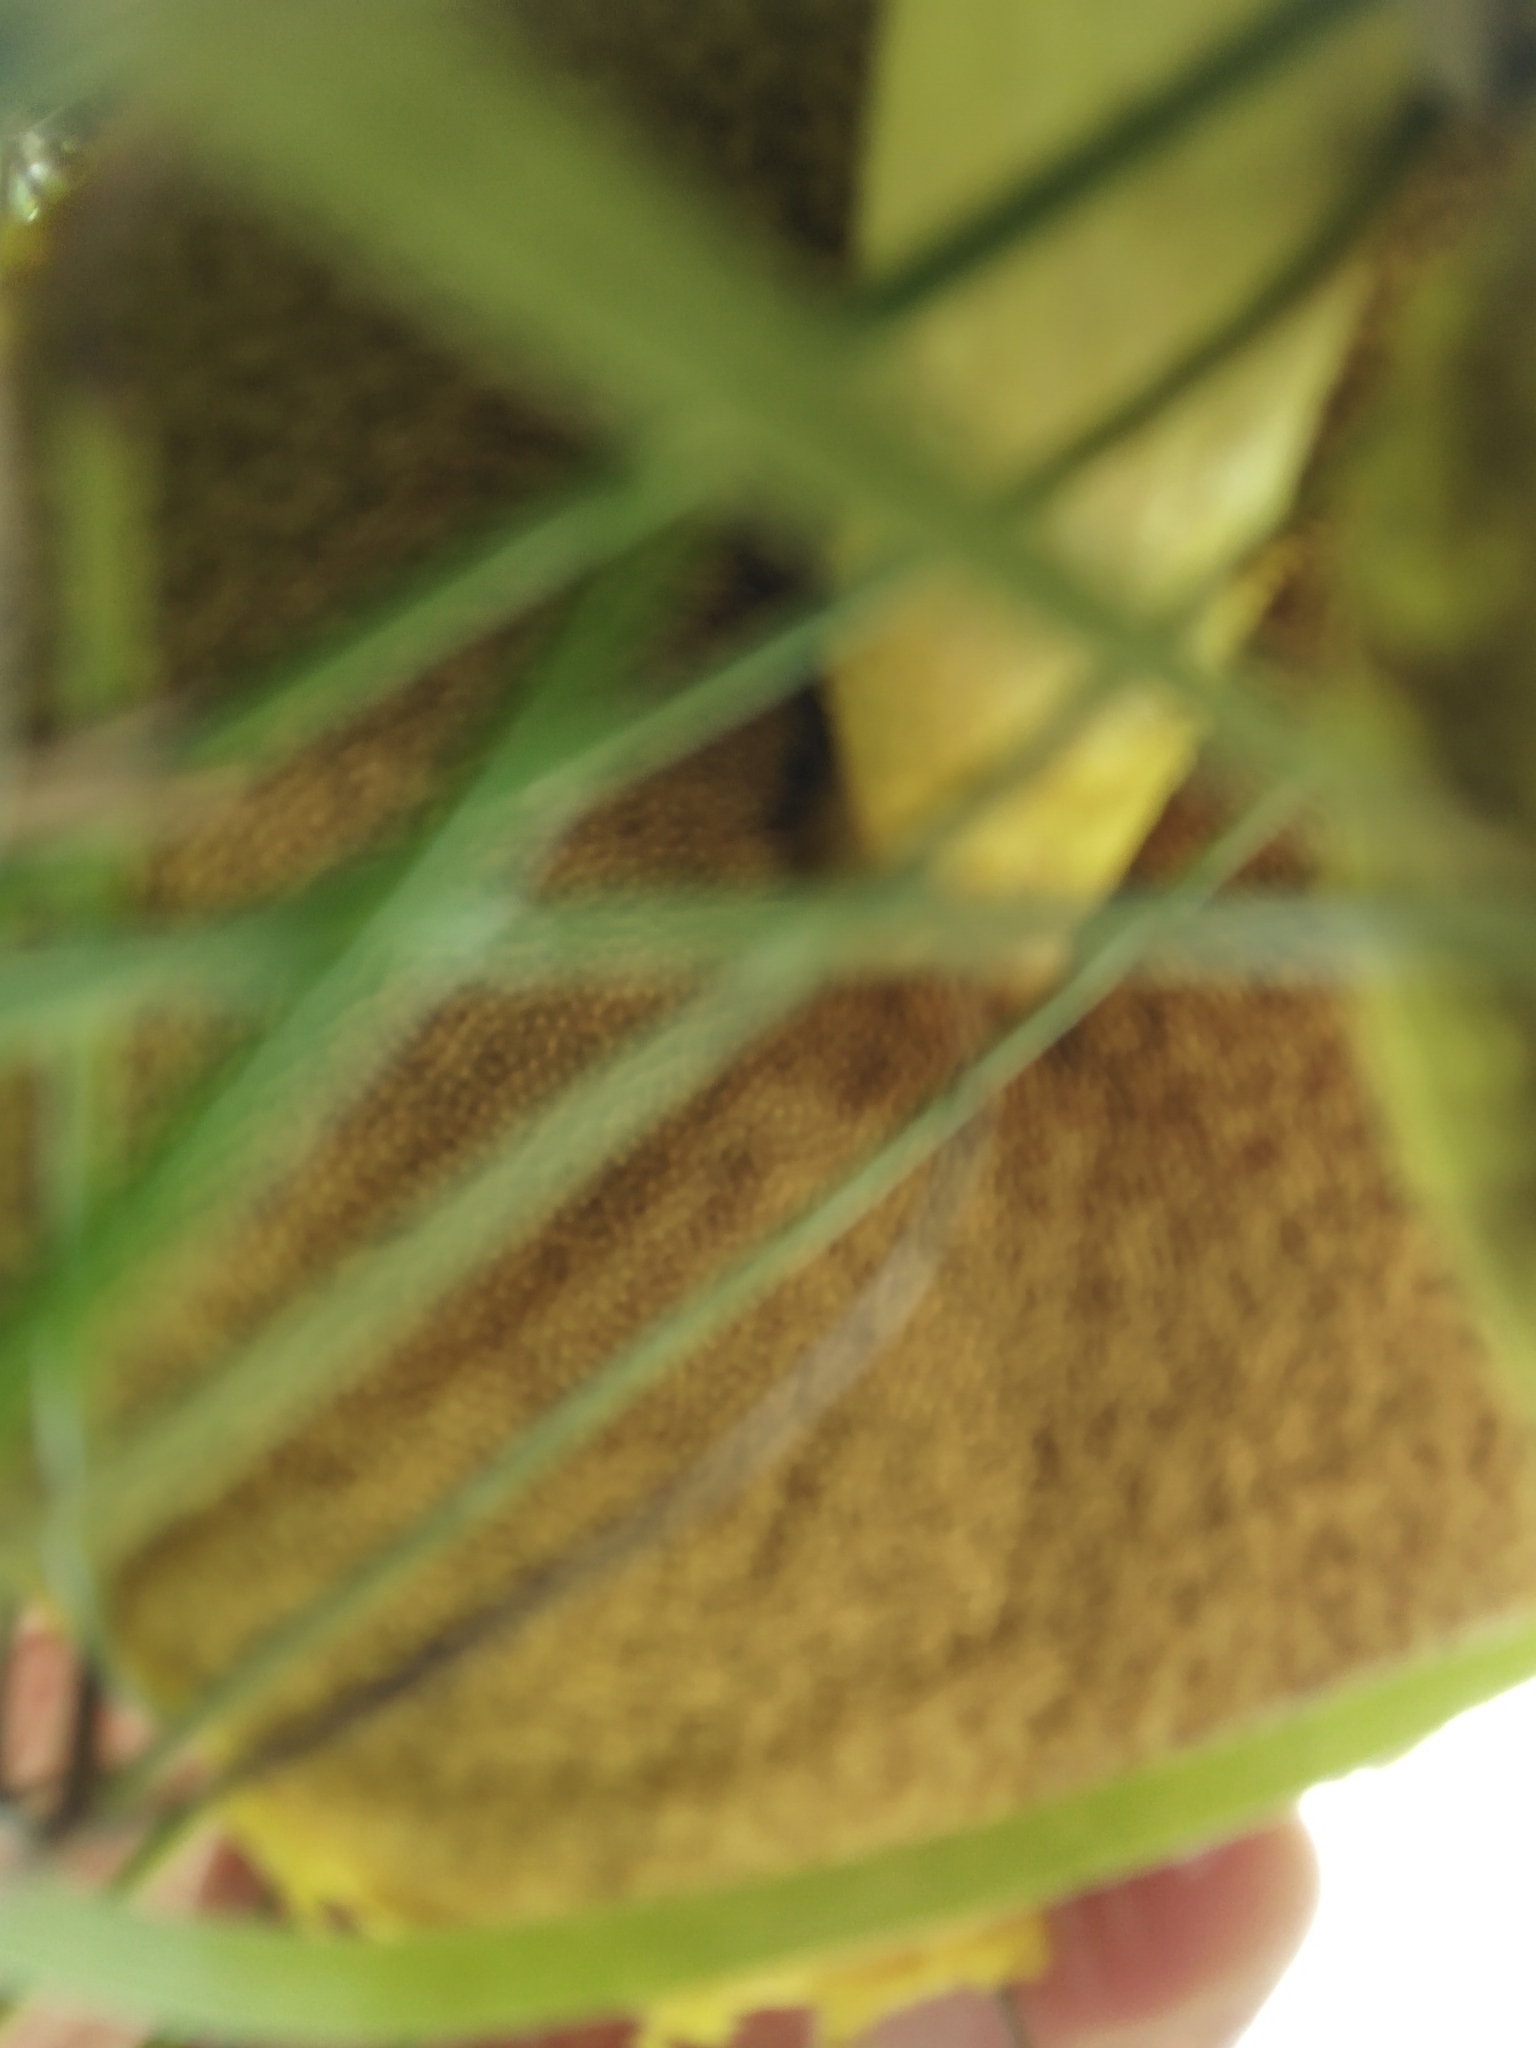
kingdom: Fungi
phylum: Basidiomycota
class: Agaricomycetes
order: Boletales
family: Boletaceae
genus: Pulveroboletus
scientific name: Pulveroboletus ravenelii
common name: Powdery sulfur bolete
